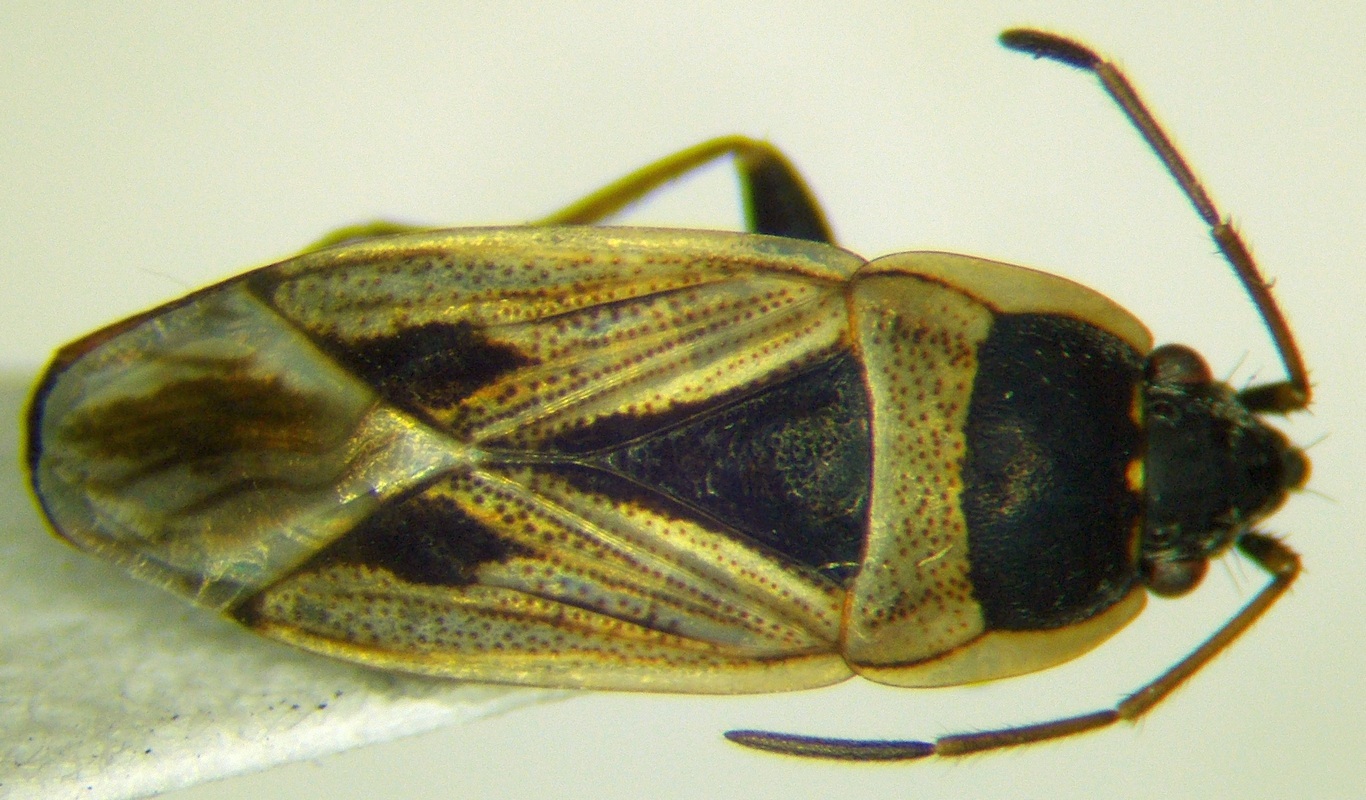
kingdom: Animalia
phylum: Arthropoda
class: Insecta
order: Hemiptera
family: Rhyparochromidae
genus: Xanthochilus
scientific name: Xanthochilus quadratus
